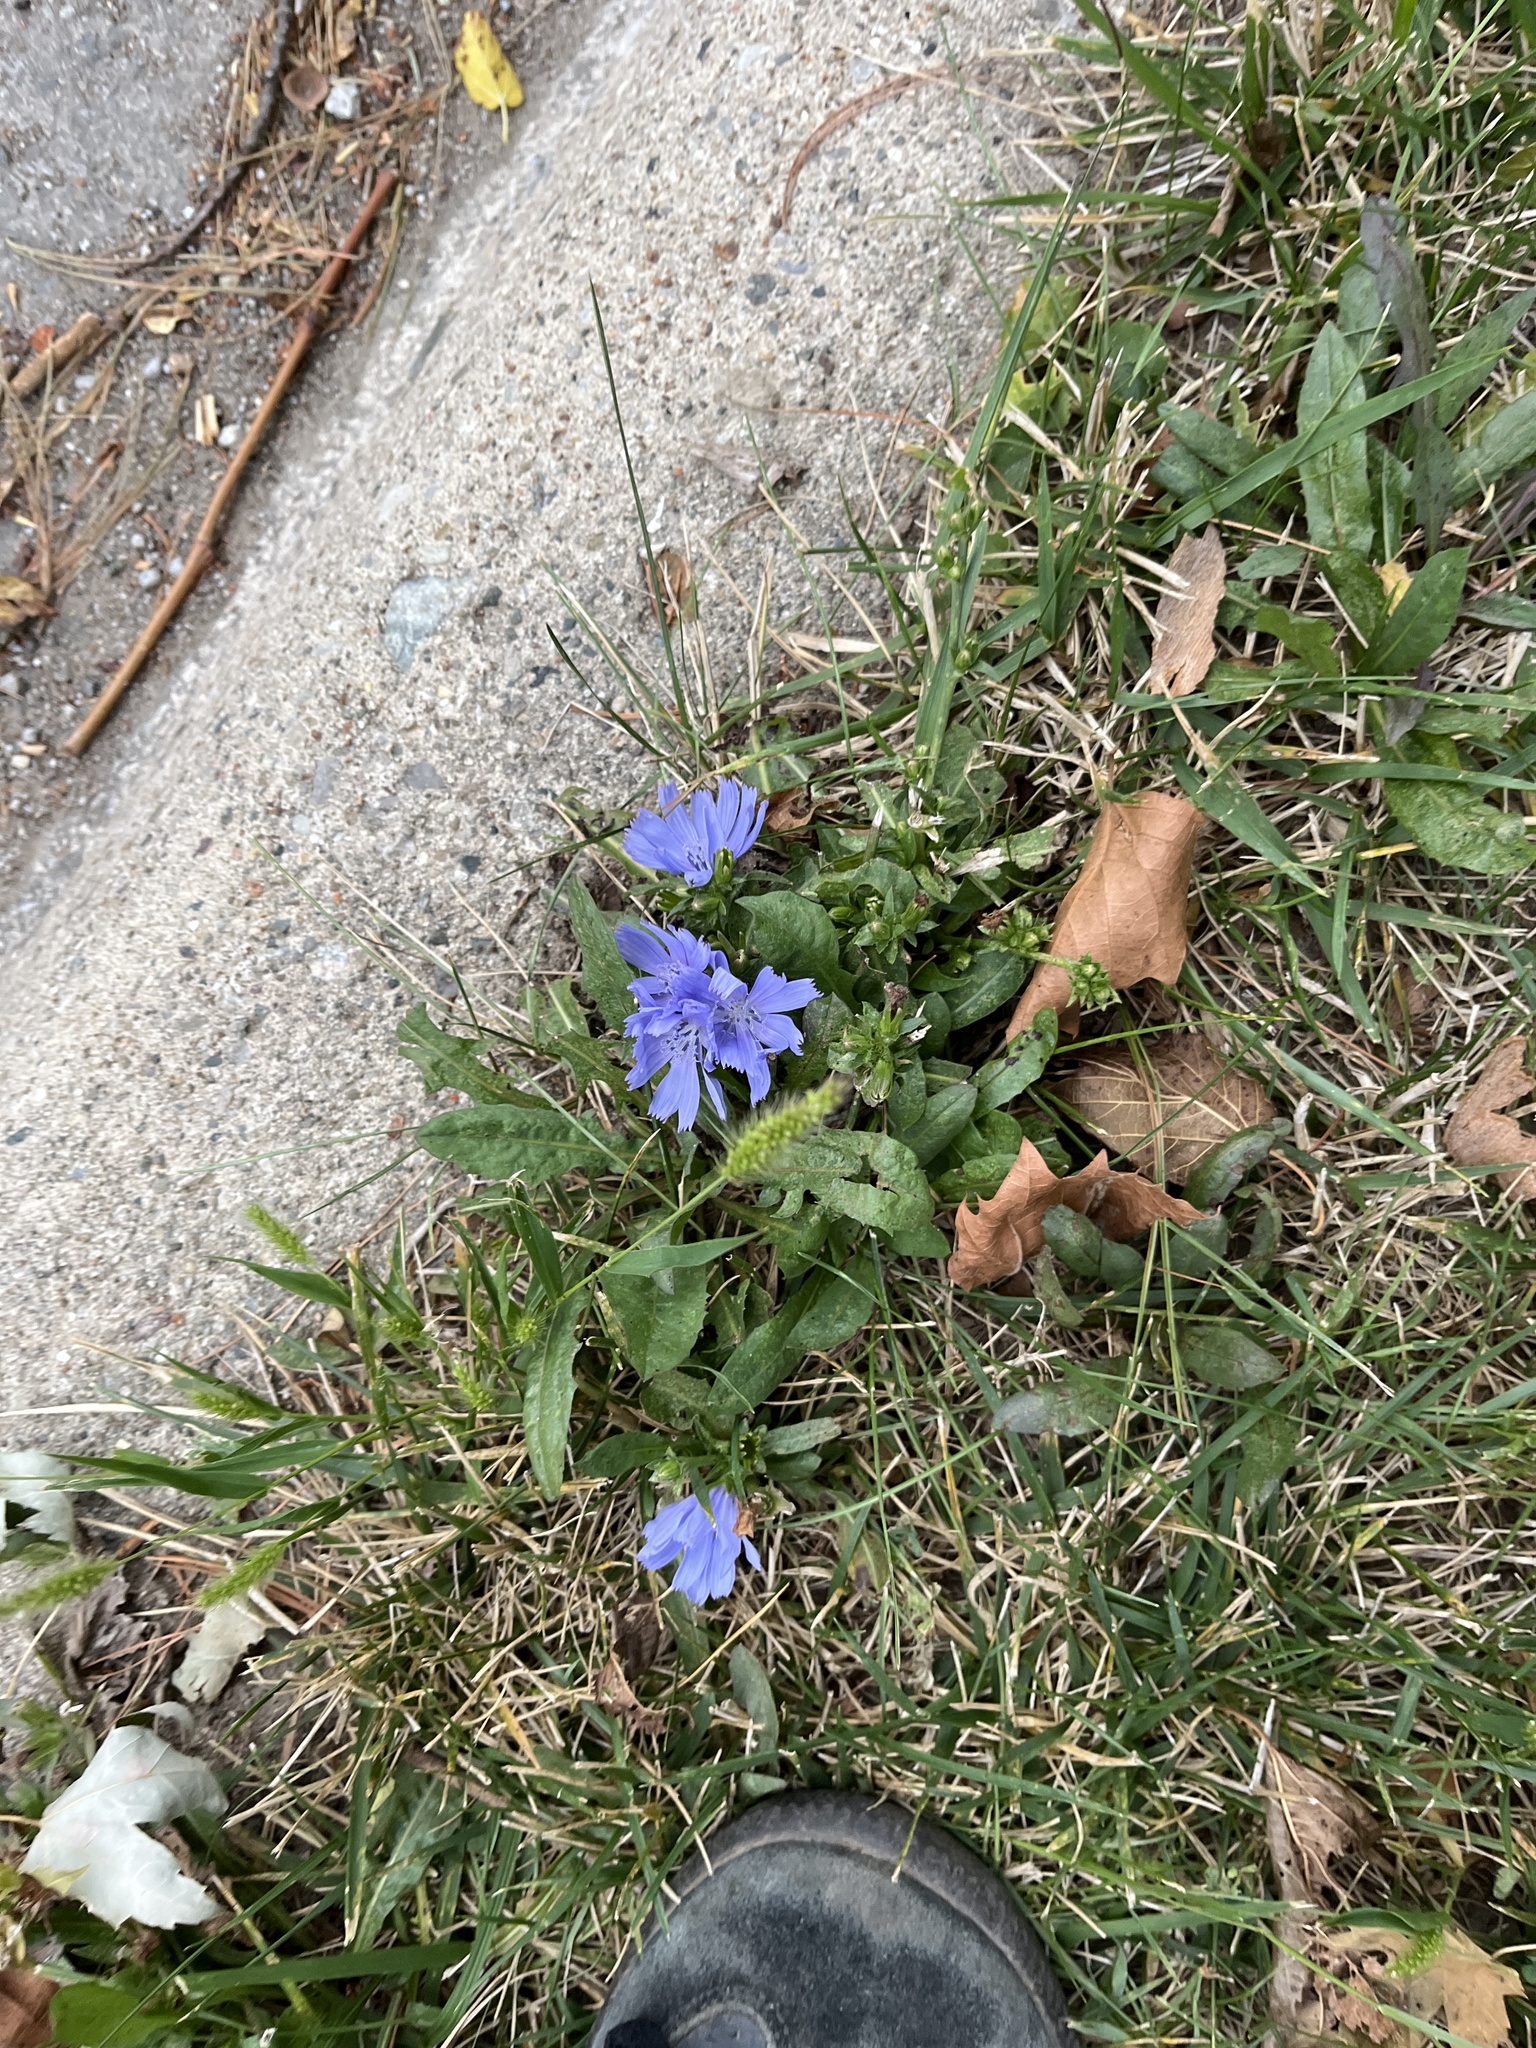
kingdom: Plantae
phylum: Tracheophyta
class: Magnoliopsida
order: Asterales
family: Asteraceae
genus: Cichorium
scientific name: Cichorium intybus
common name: Chicory
